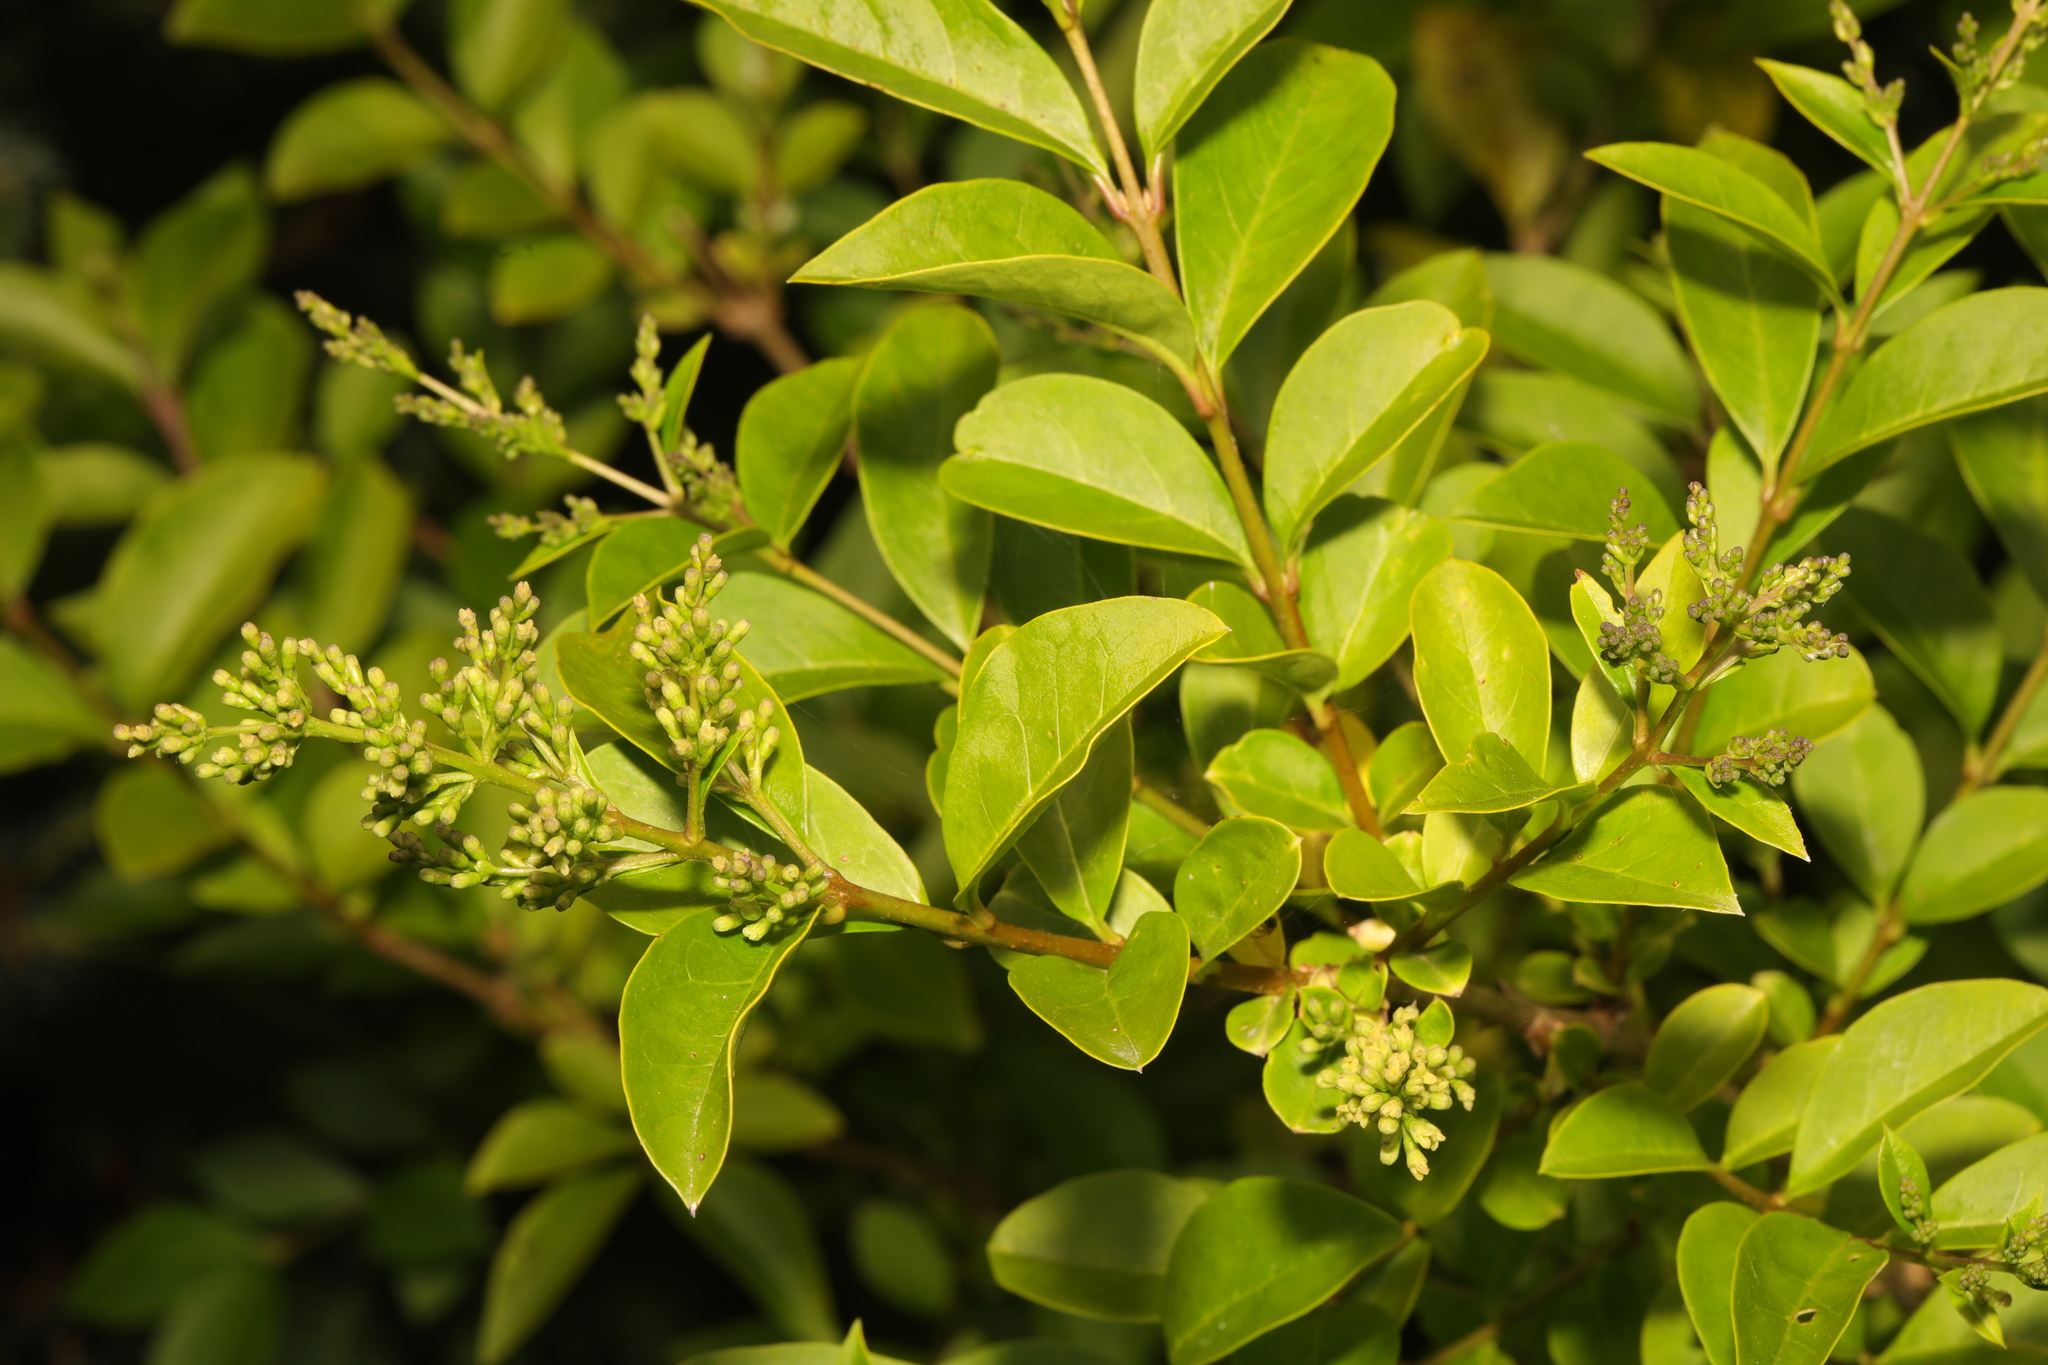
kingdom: Plantae
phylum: Tracheophyta
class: Magnoliopsida
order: Lamiales
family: Oleaceae
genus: Ligustrum
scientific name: Ligustrum ovalifolium
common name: California privet
